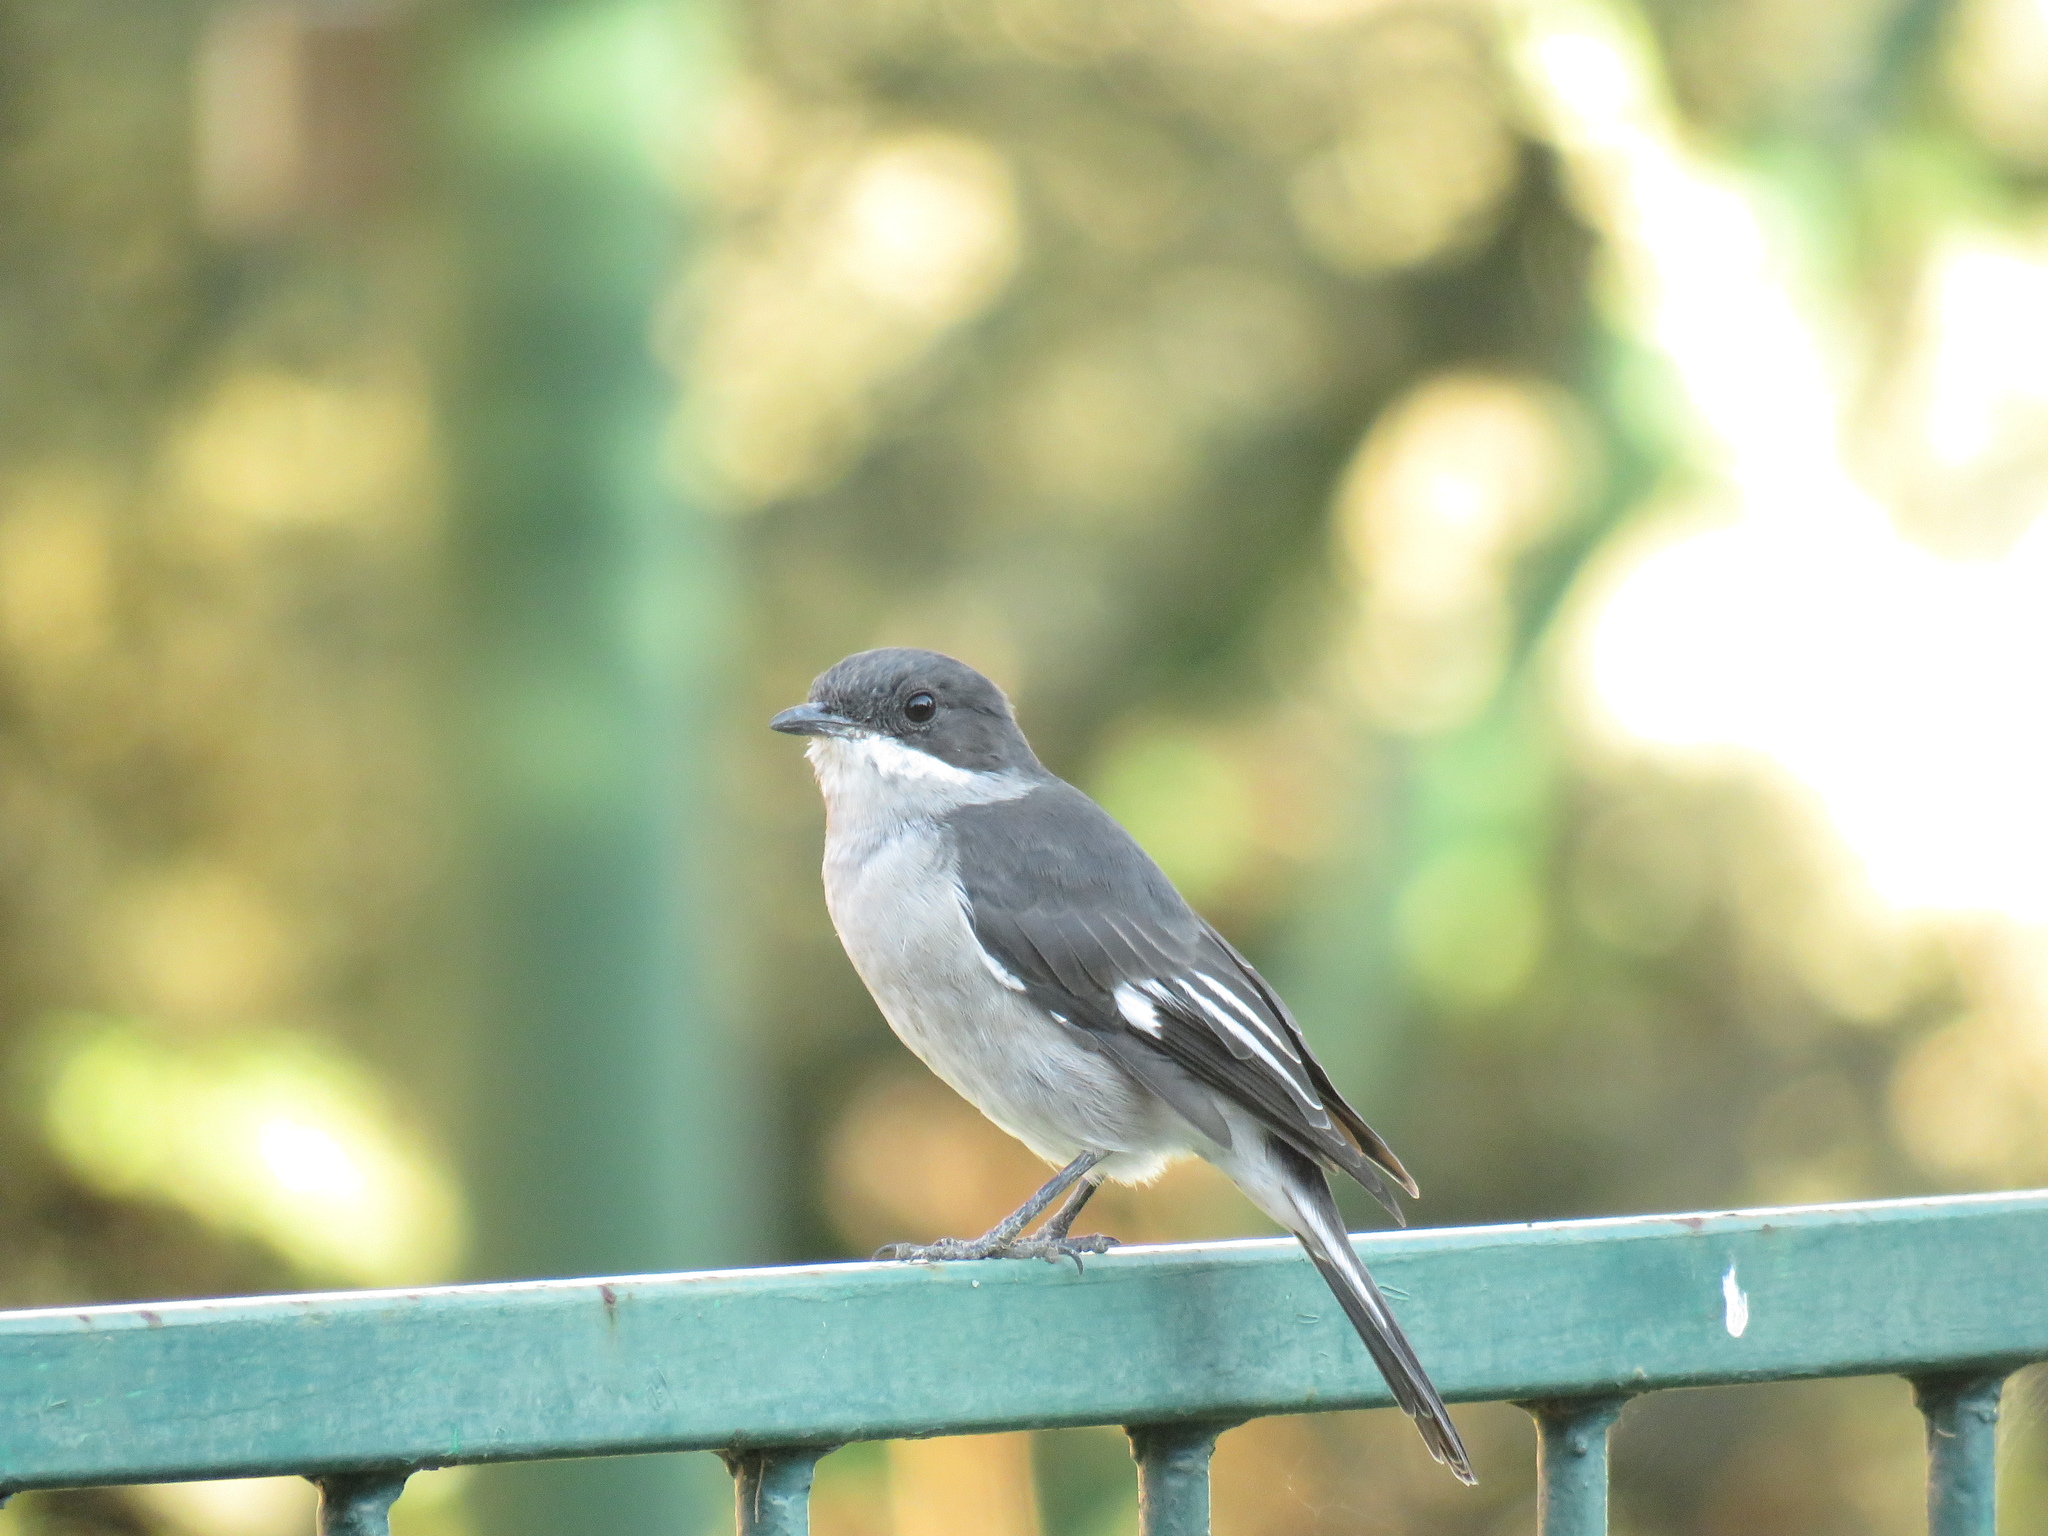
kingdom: Animalia
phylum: Chordata
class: Aves
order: Passeriformes
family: Muscicapidae
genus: Sigelus
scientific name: Sigelus silens
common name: Fiscal flycatcher
